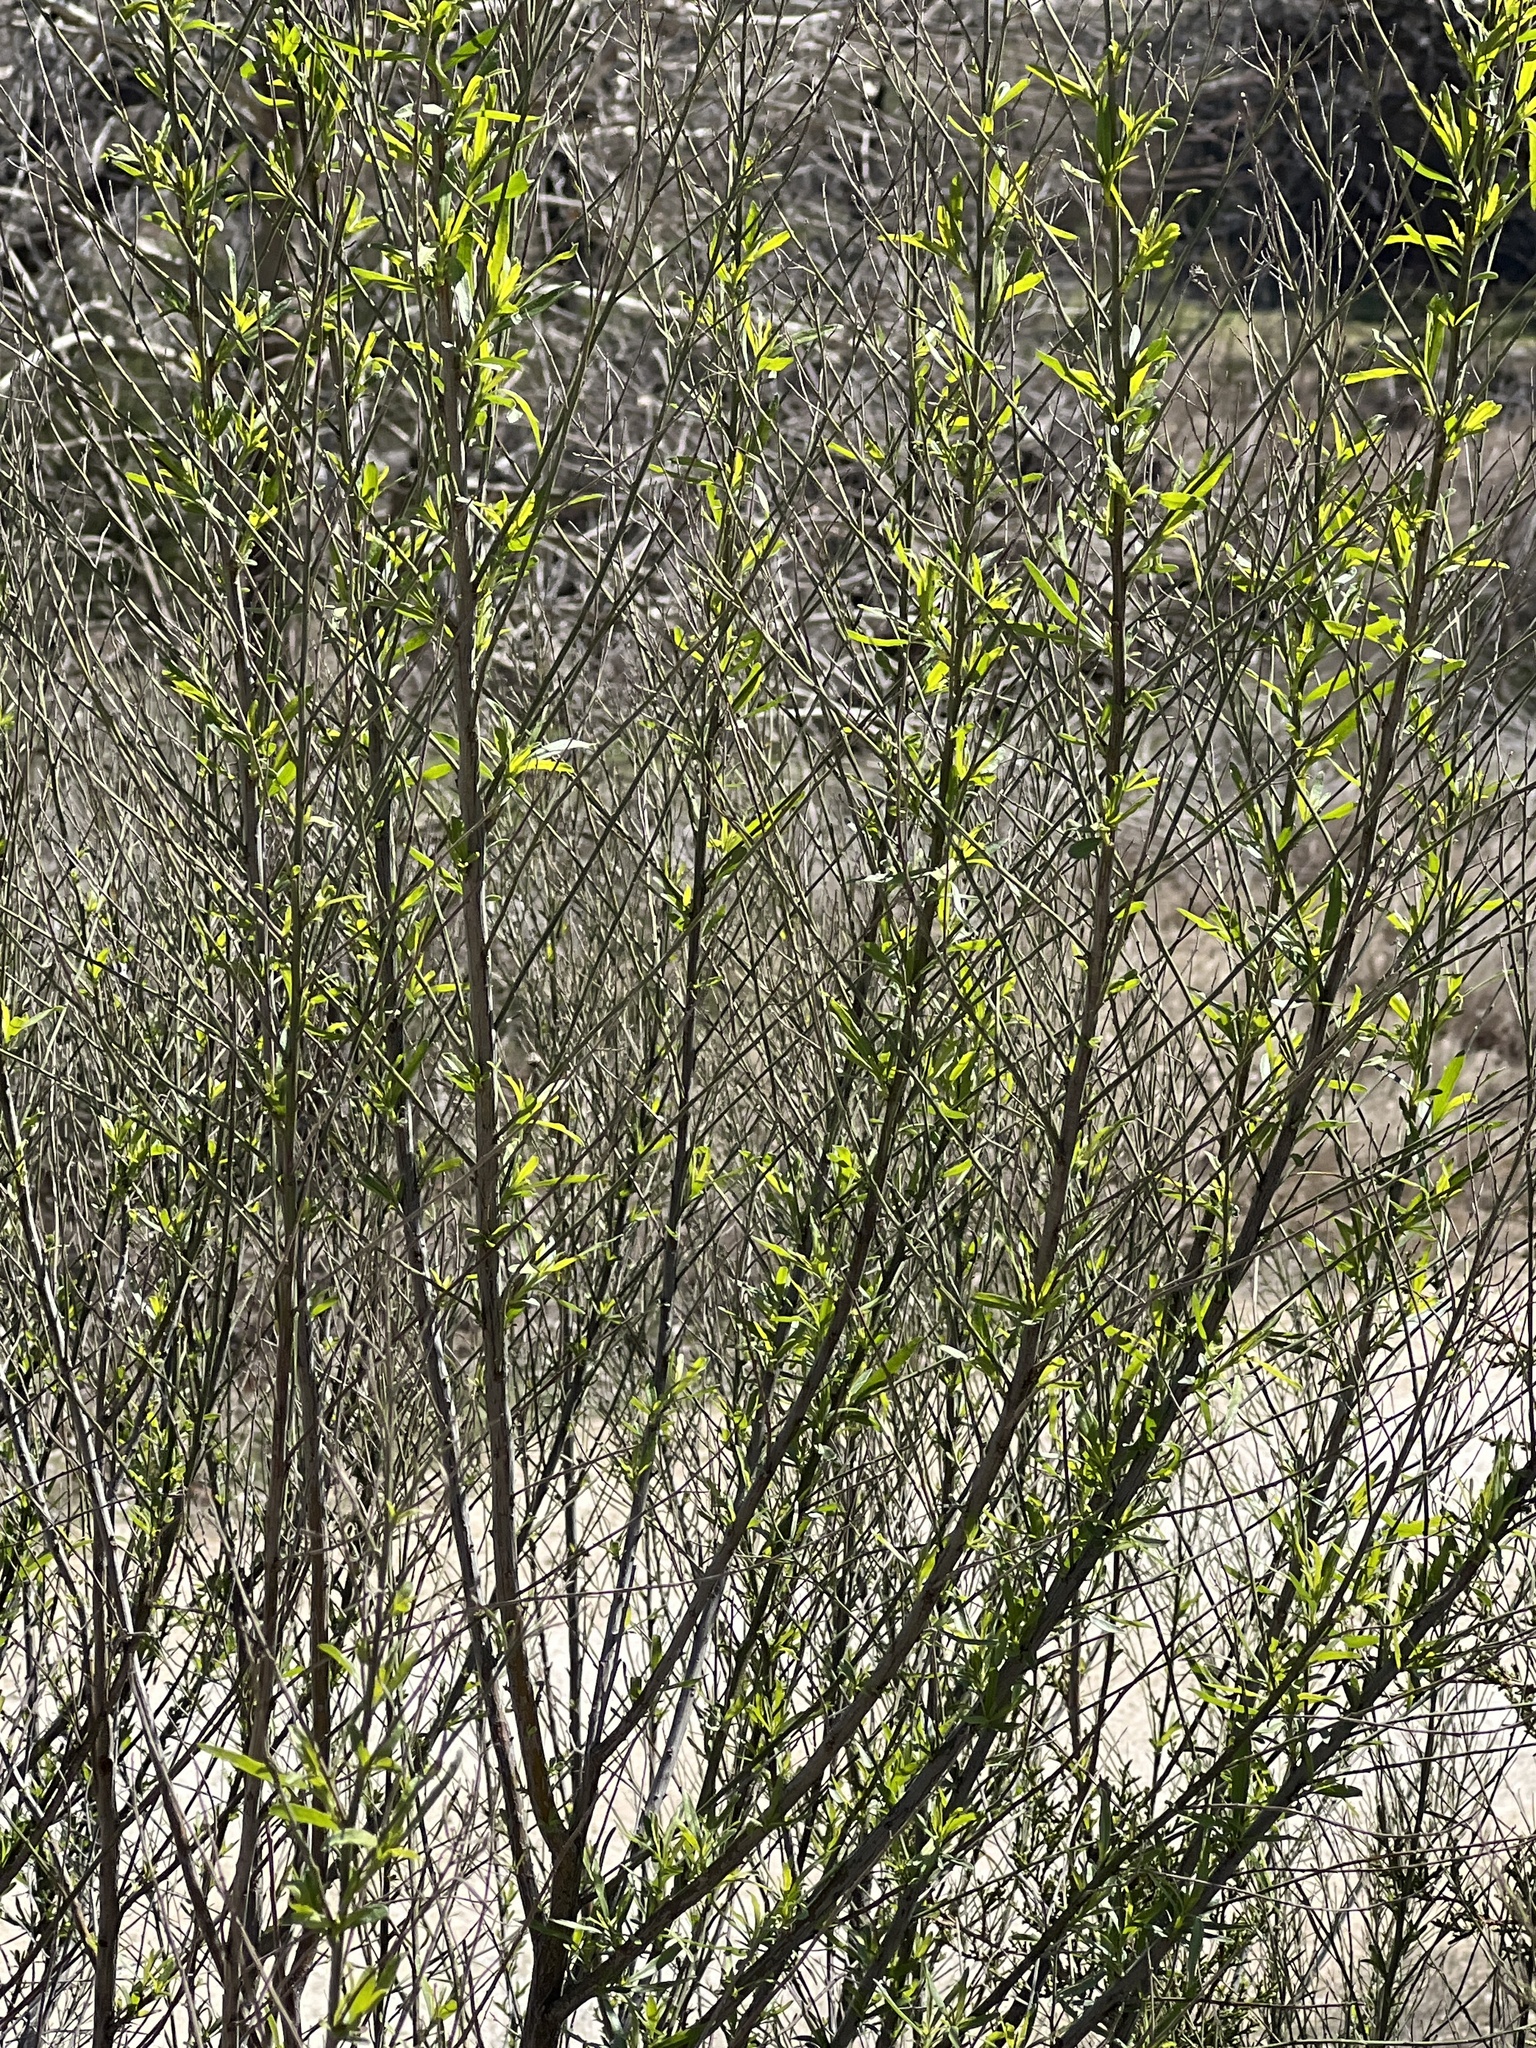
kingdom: Plantae
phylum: Tracheophyta
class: Magnoliopsida
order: Asterales
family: Asteraceae
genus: Baccharis
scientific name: Baccharis neglecta
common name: Roosevelt-weed
